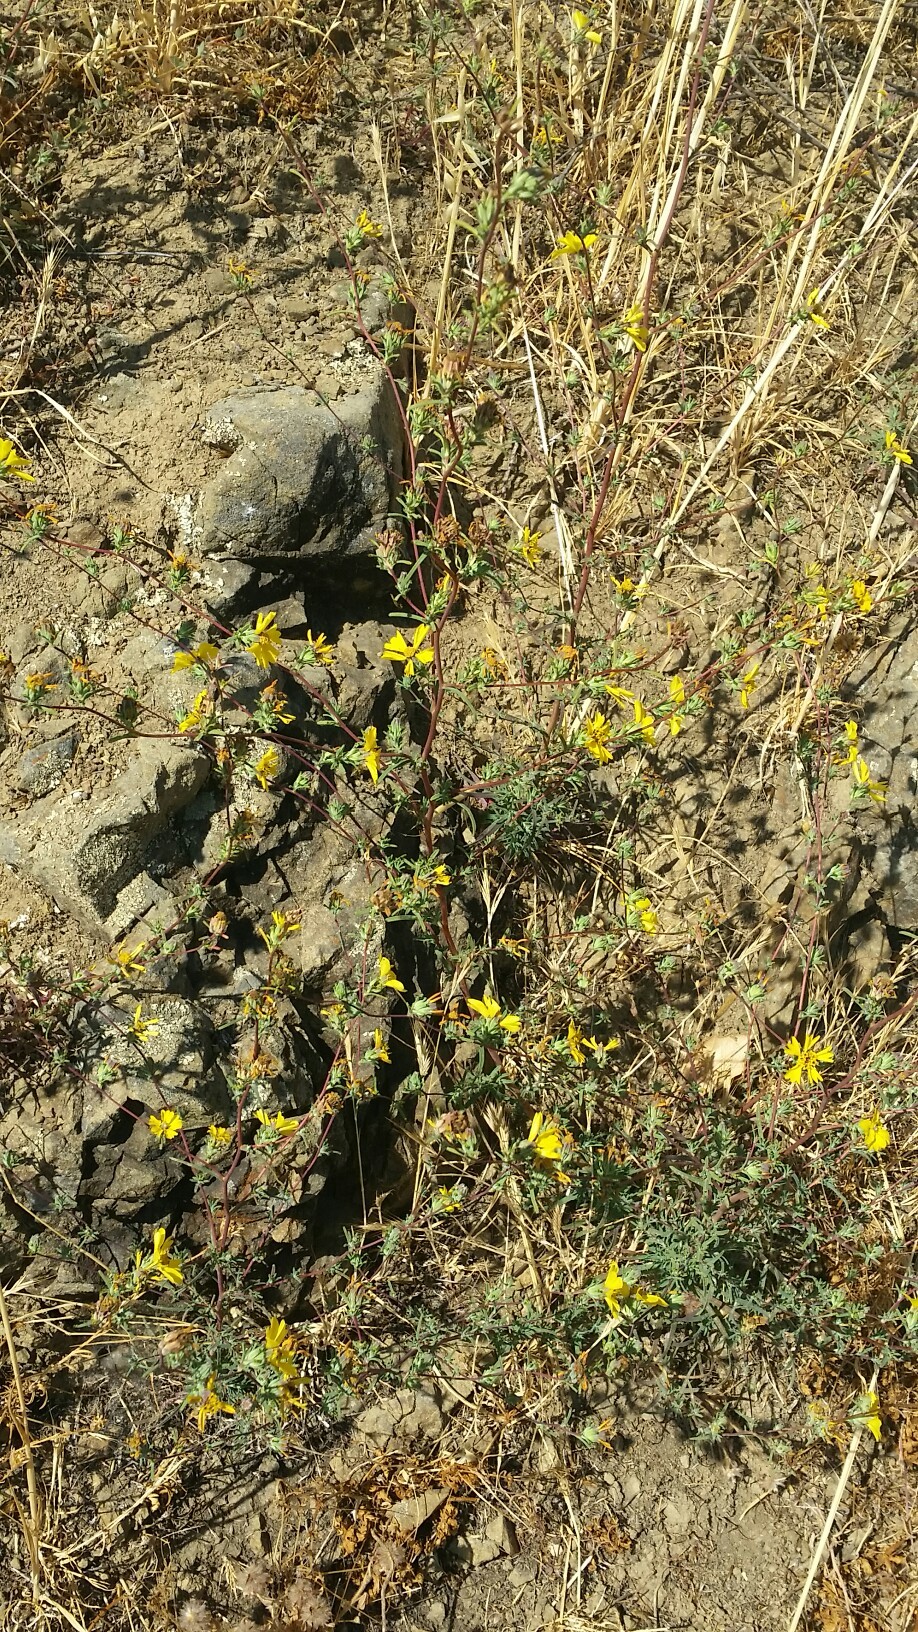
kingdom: Plantae
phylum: Tracheophyta
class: Magnoliopsida
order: Asterales
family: Asteraceae
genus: Calycadenia
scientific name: Calycadenia truncata
